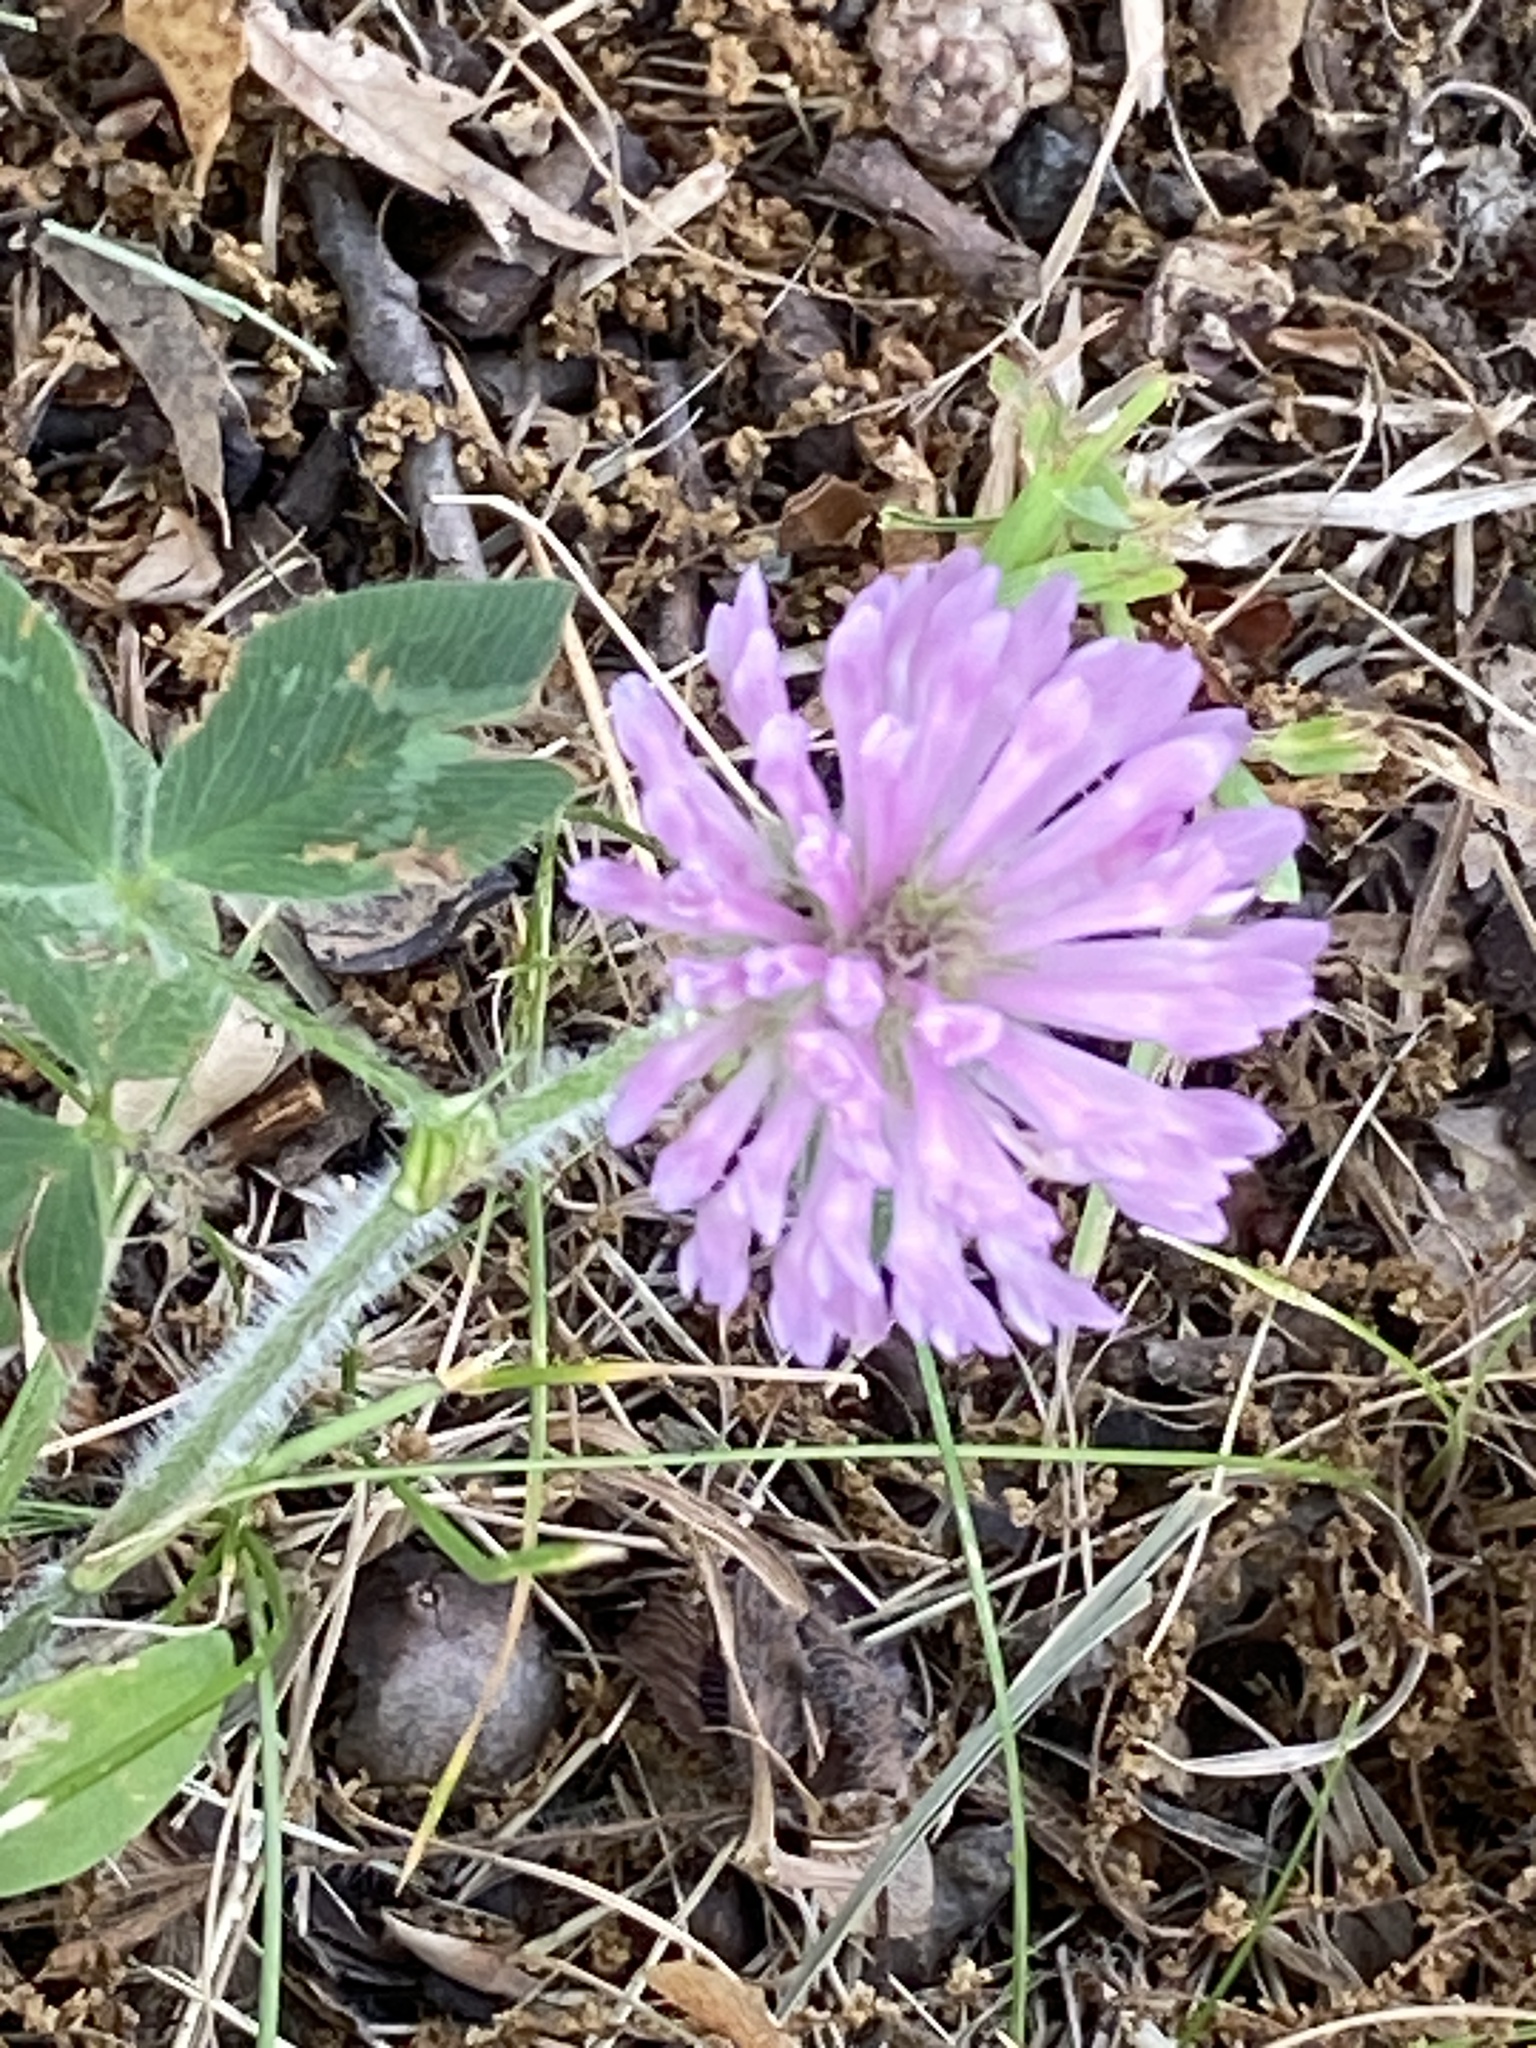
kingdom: Plantae
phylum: Tracheophyta
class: Magnoliopsida
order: Fabales
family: Fabaceae
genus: Trifolium
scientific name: Trifolium pratense
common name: Red clover
